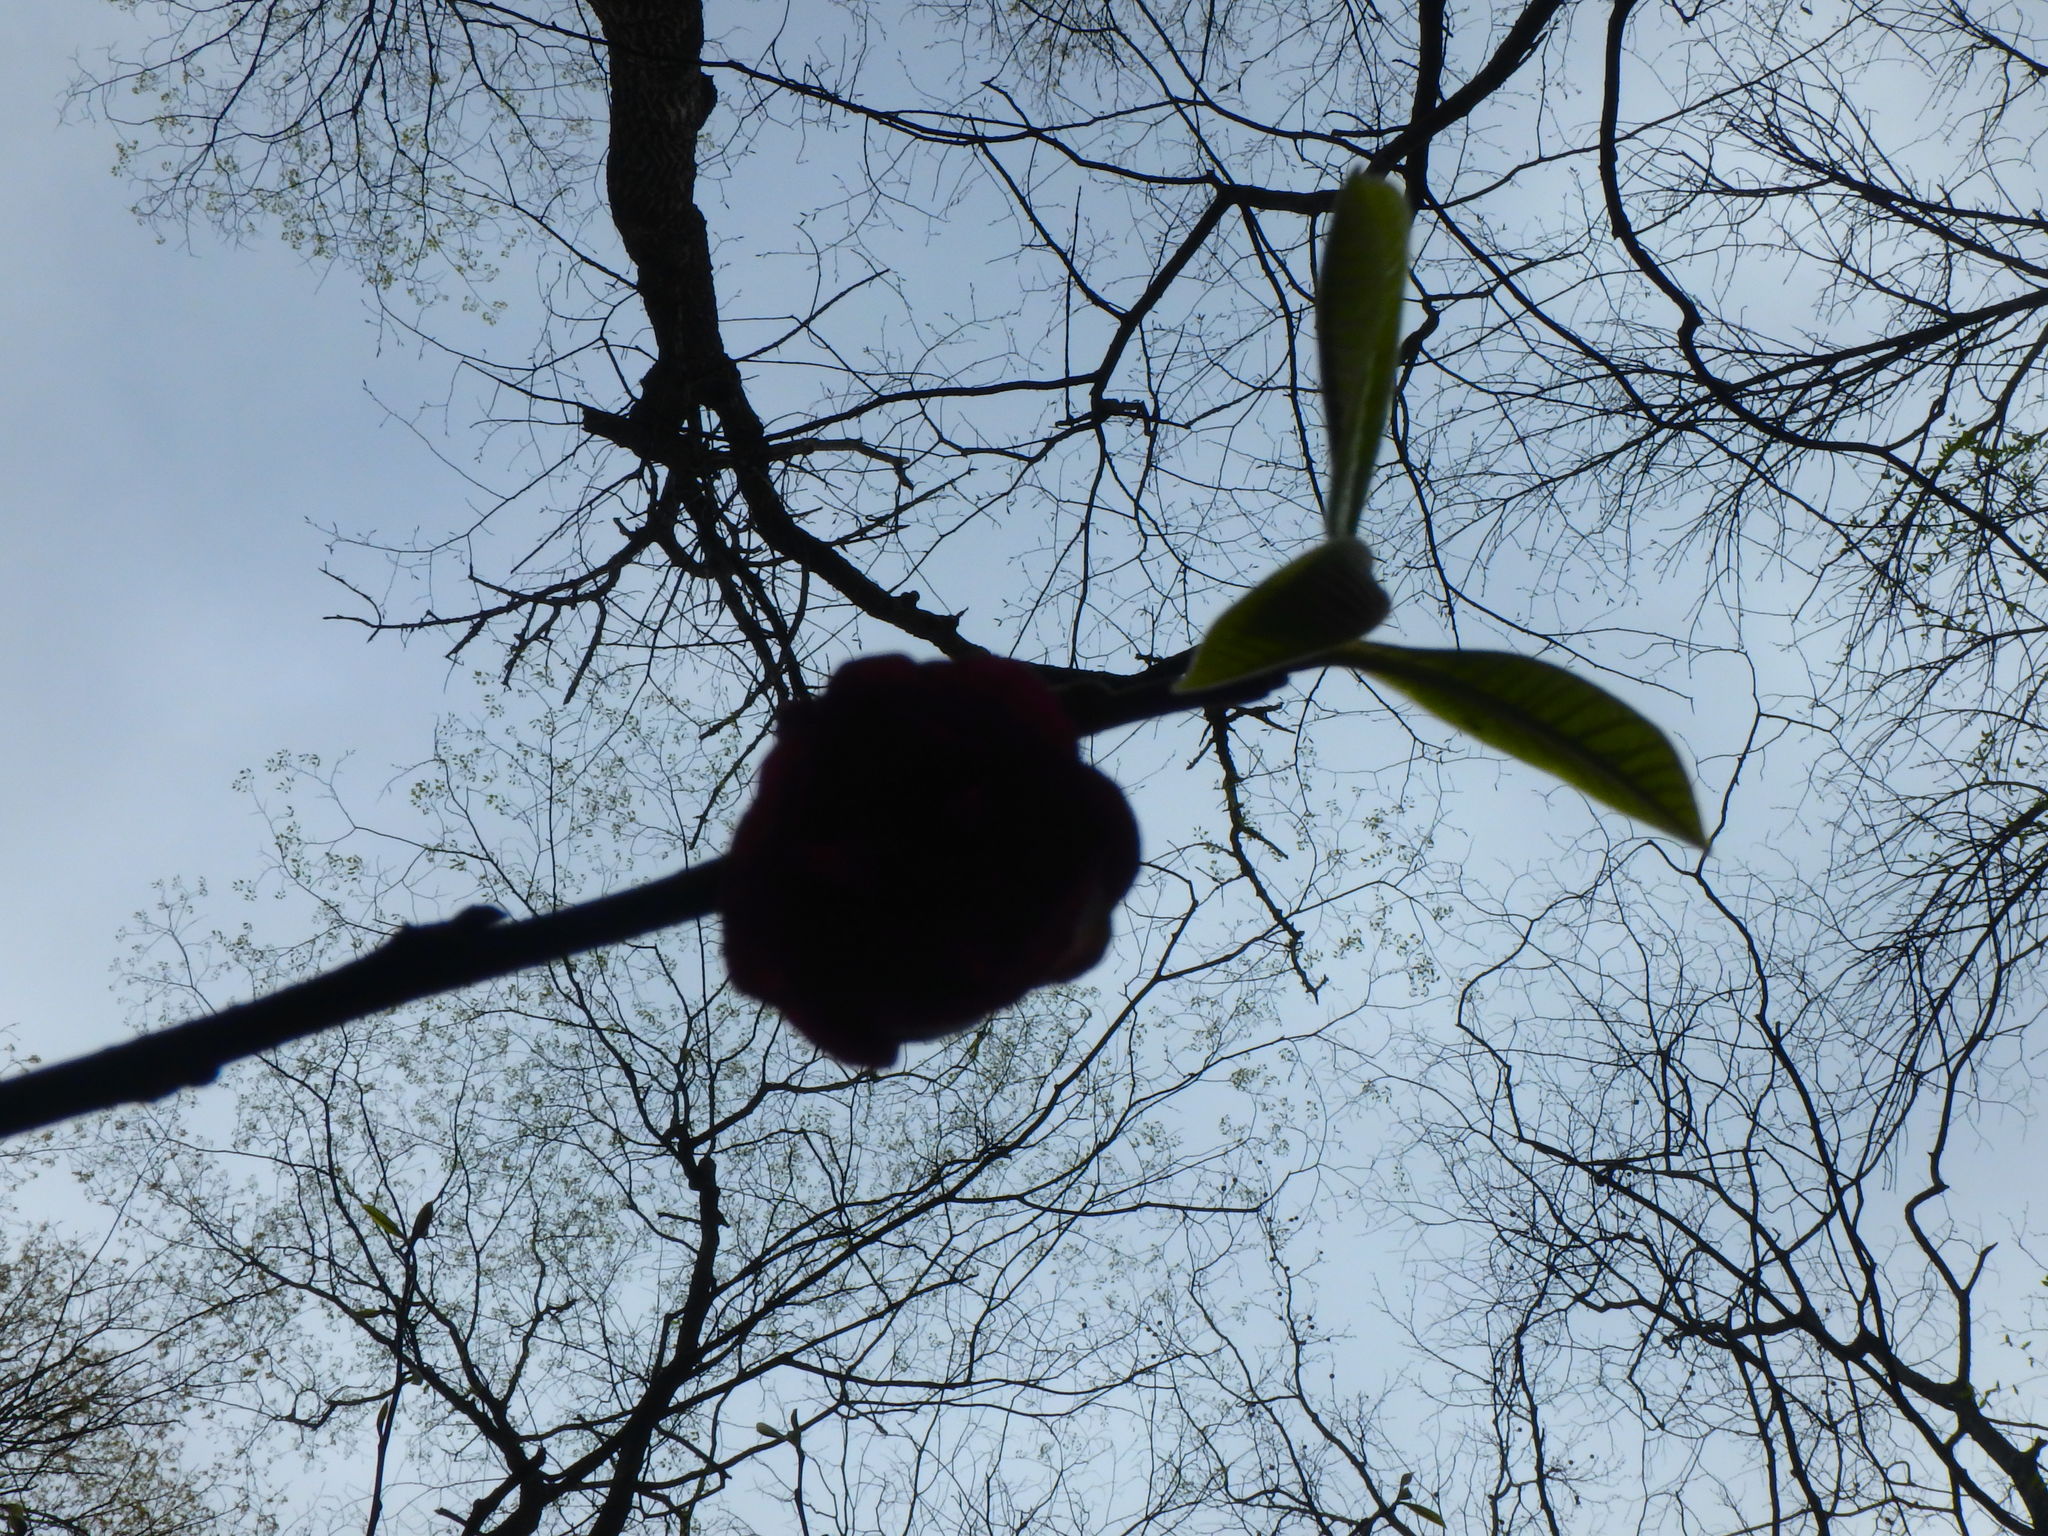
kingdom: Plantae
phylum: Tracheophyta
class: Magnoliopsida
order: Magnoliales
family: Annonaceae
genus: Asimina
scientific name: Asimina triloba
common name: Dog-banana
